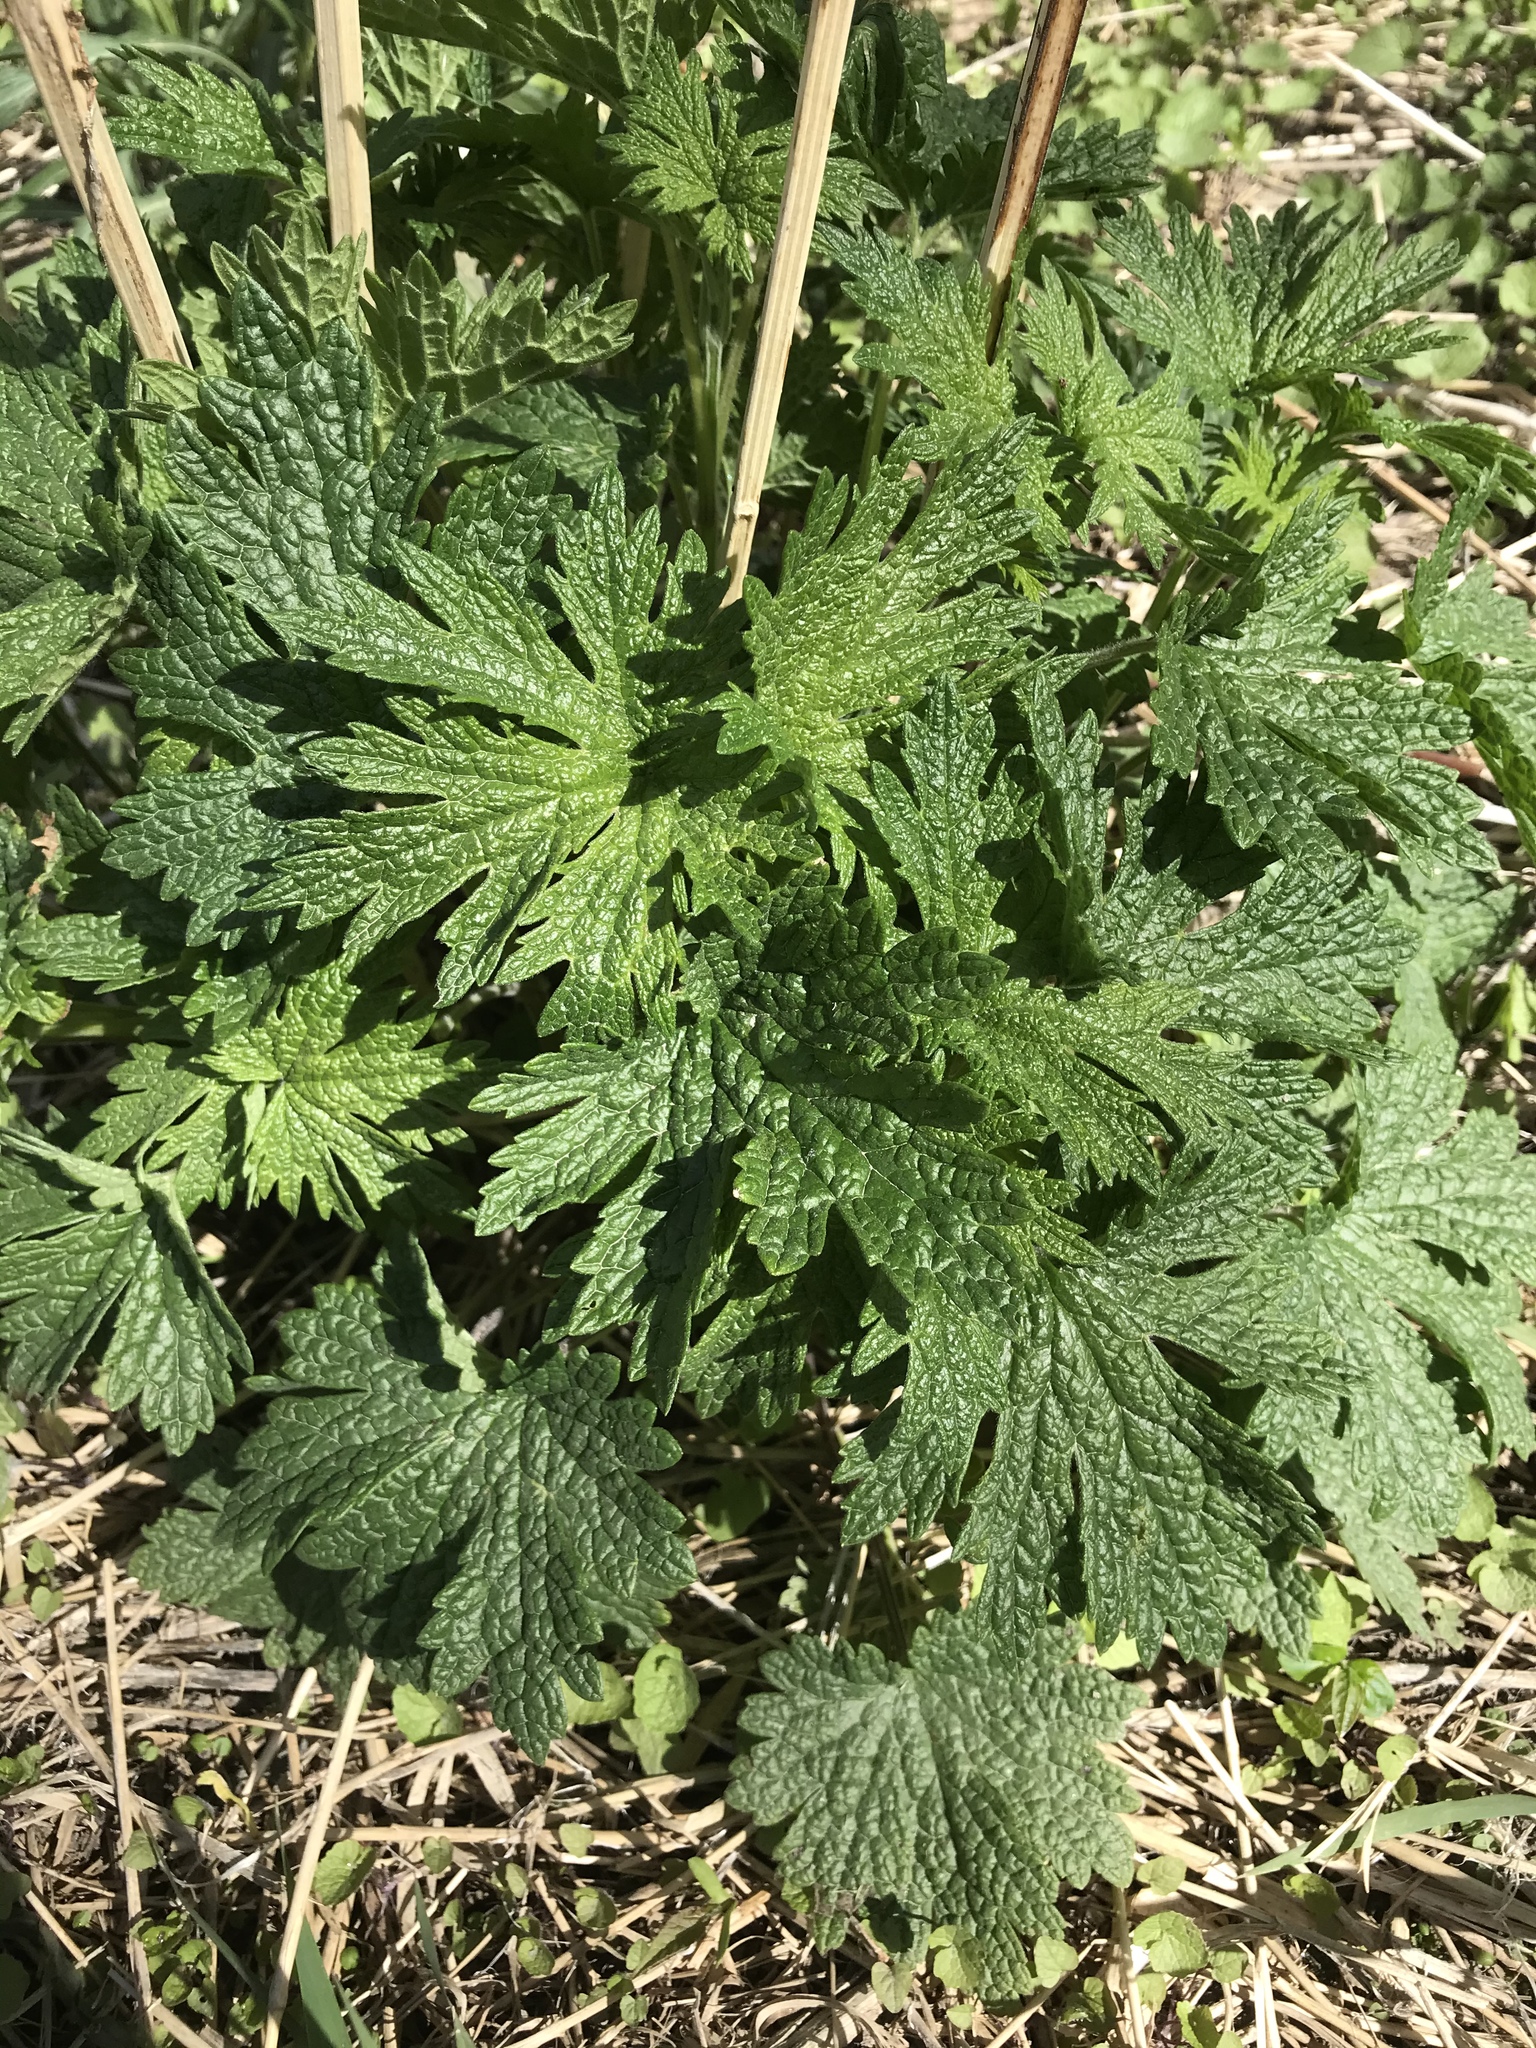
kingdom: Plantae
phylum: Tracheophyta
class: Magnoliopsida
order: Lamiales
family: Lamiaceae
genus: Leonurus
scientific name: Leonurus cardiaca
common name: Motherwort
